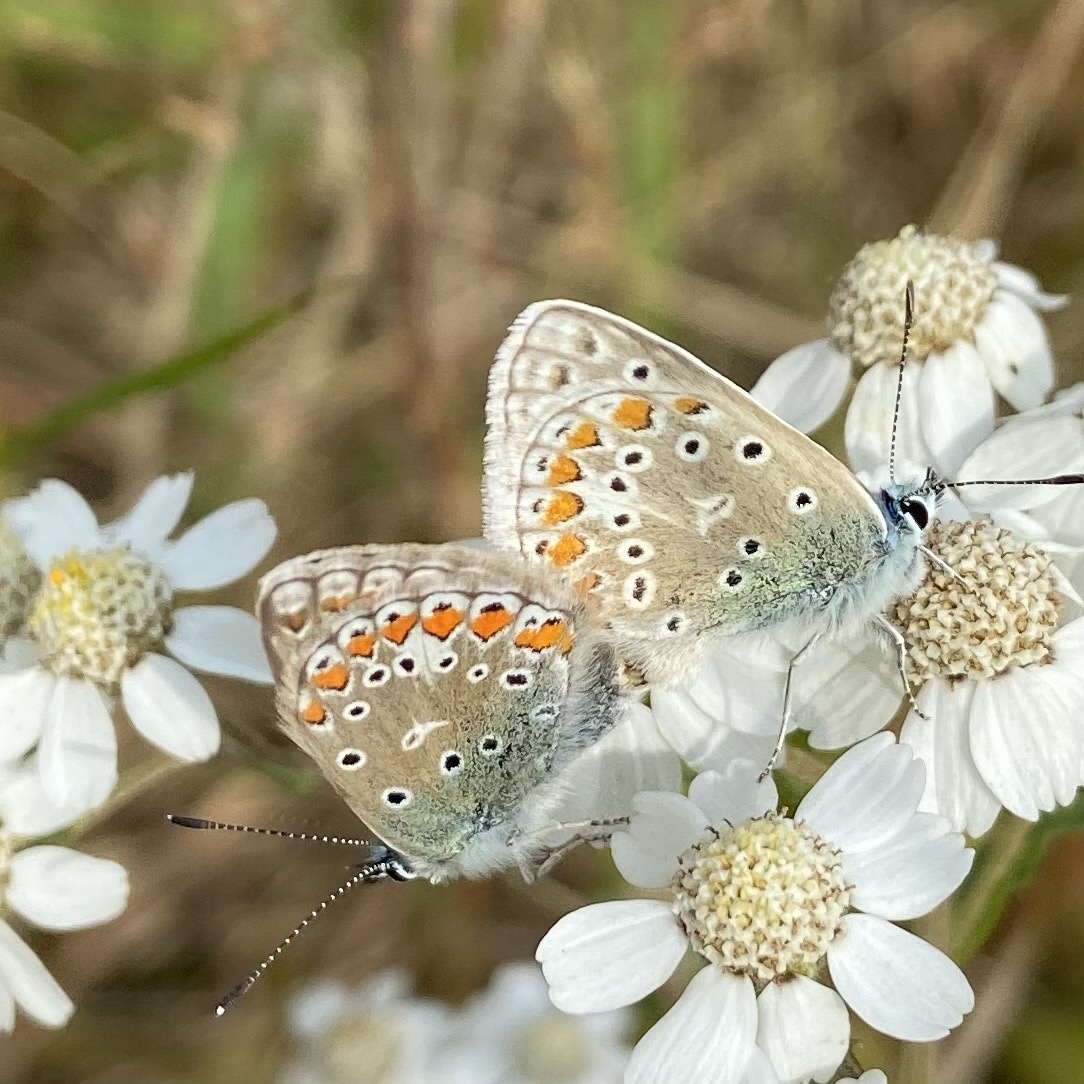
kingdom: Animalia
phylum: Arthropoda
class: Insecta
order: Lepidoptera
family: Lycaenidae
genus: Polyommatus
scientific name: Polyommatus icarus
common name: Common blue
